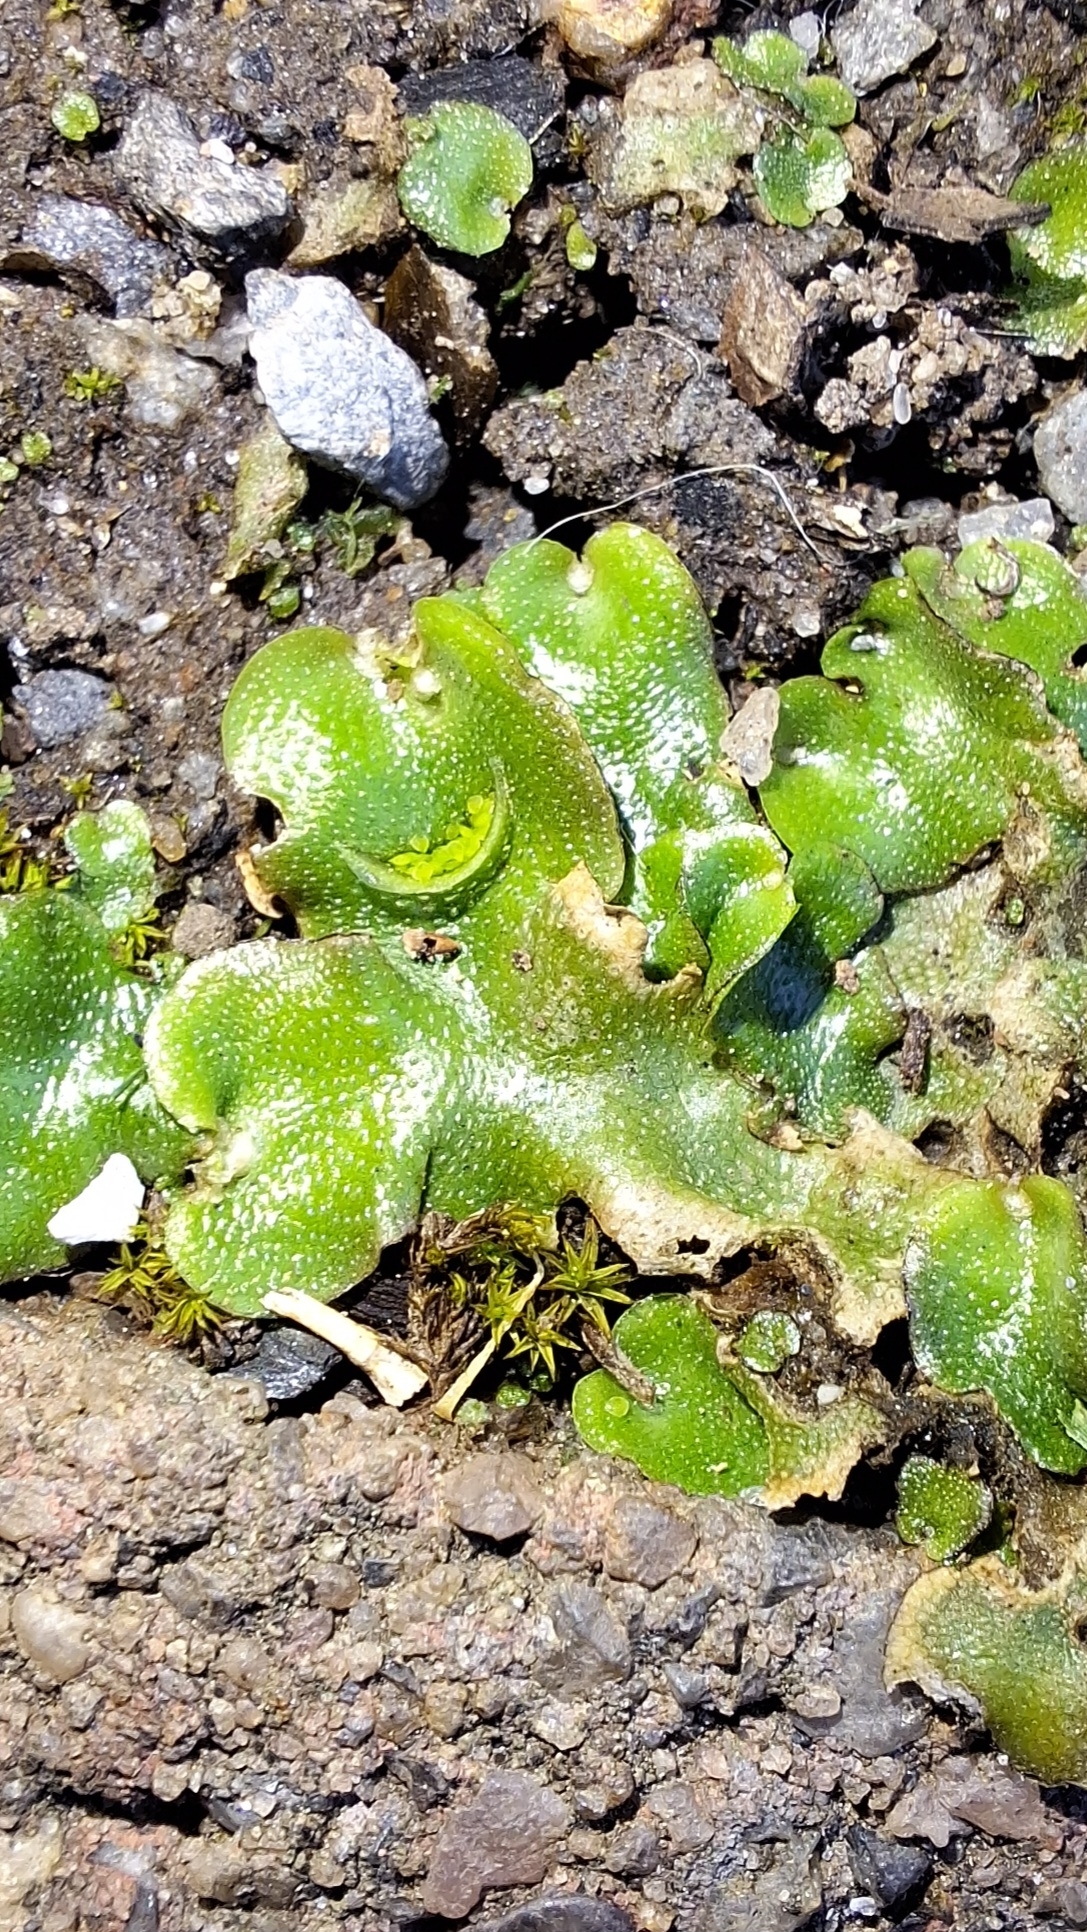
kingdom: Plantae
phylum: Marchantiophyta
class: Marchantiopsida
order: Lunulariales
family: Lunulariaceae
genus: Lunularia
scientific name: Lunularia cruciata
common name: Crescent-cup liverwort
